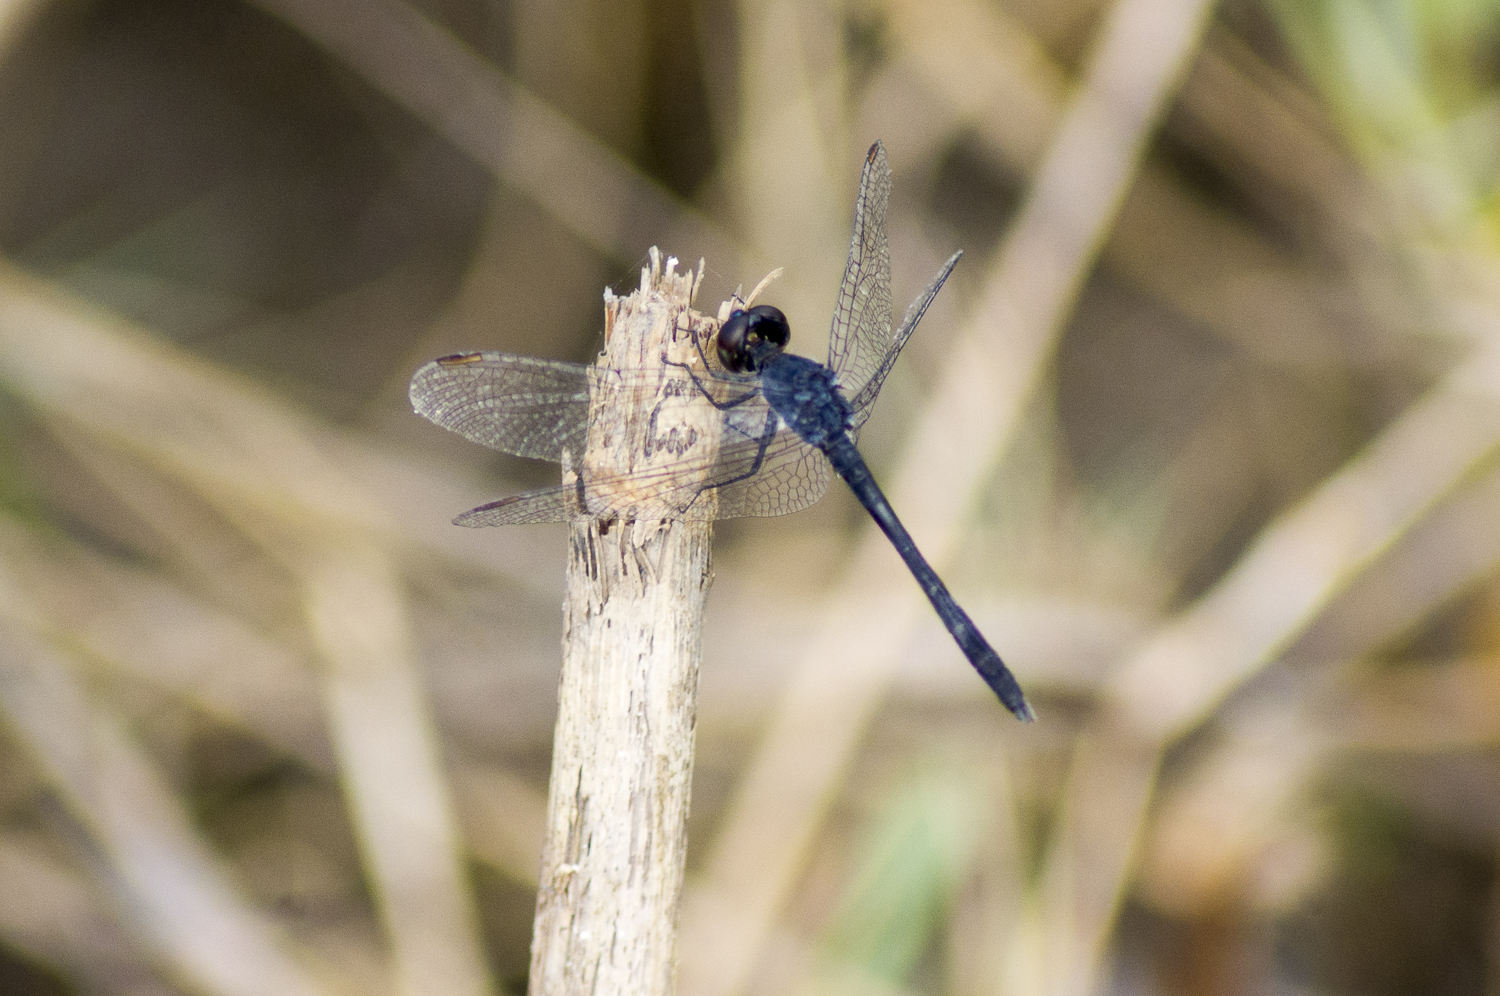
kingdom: Animalia
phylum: Arthropoda
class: Insecta
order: Odonata
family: Libellulidae
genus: Erythrodiplax
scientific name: Erythrodiplax berenice
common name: Seaside dragonlet
